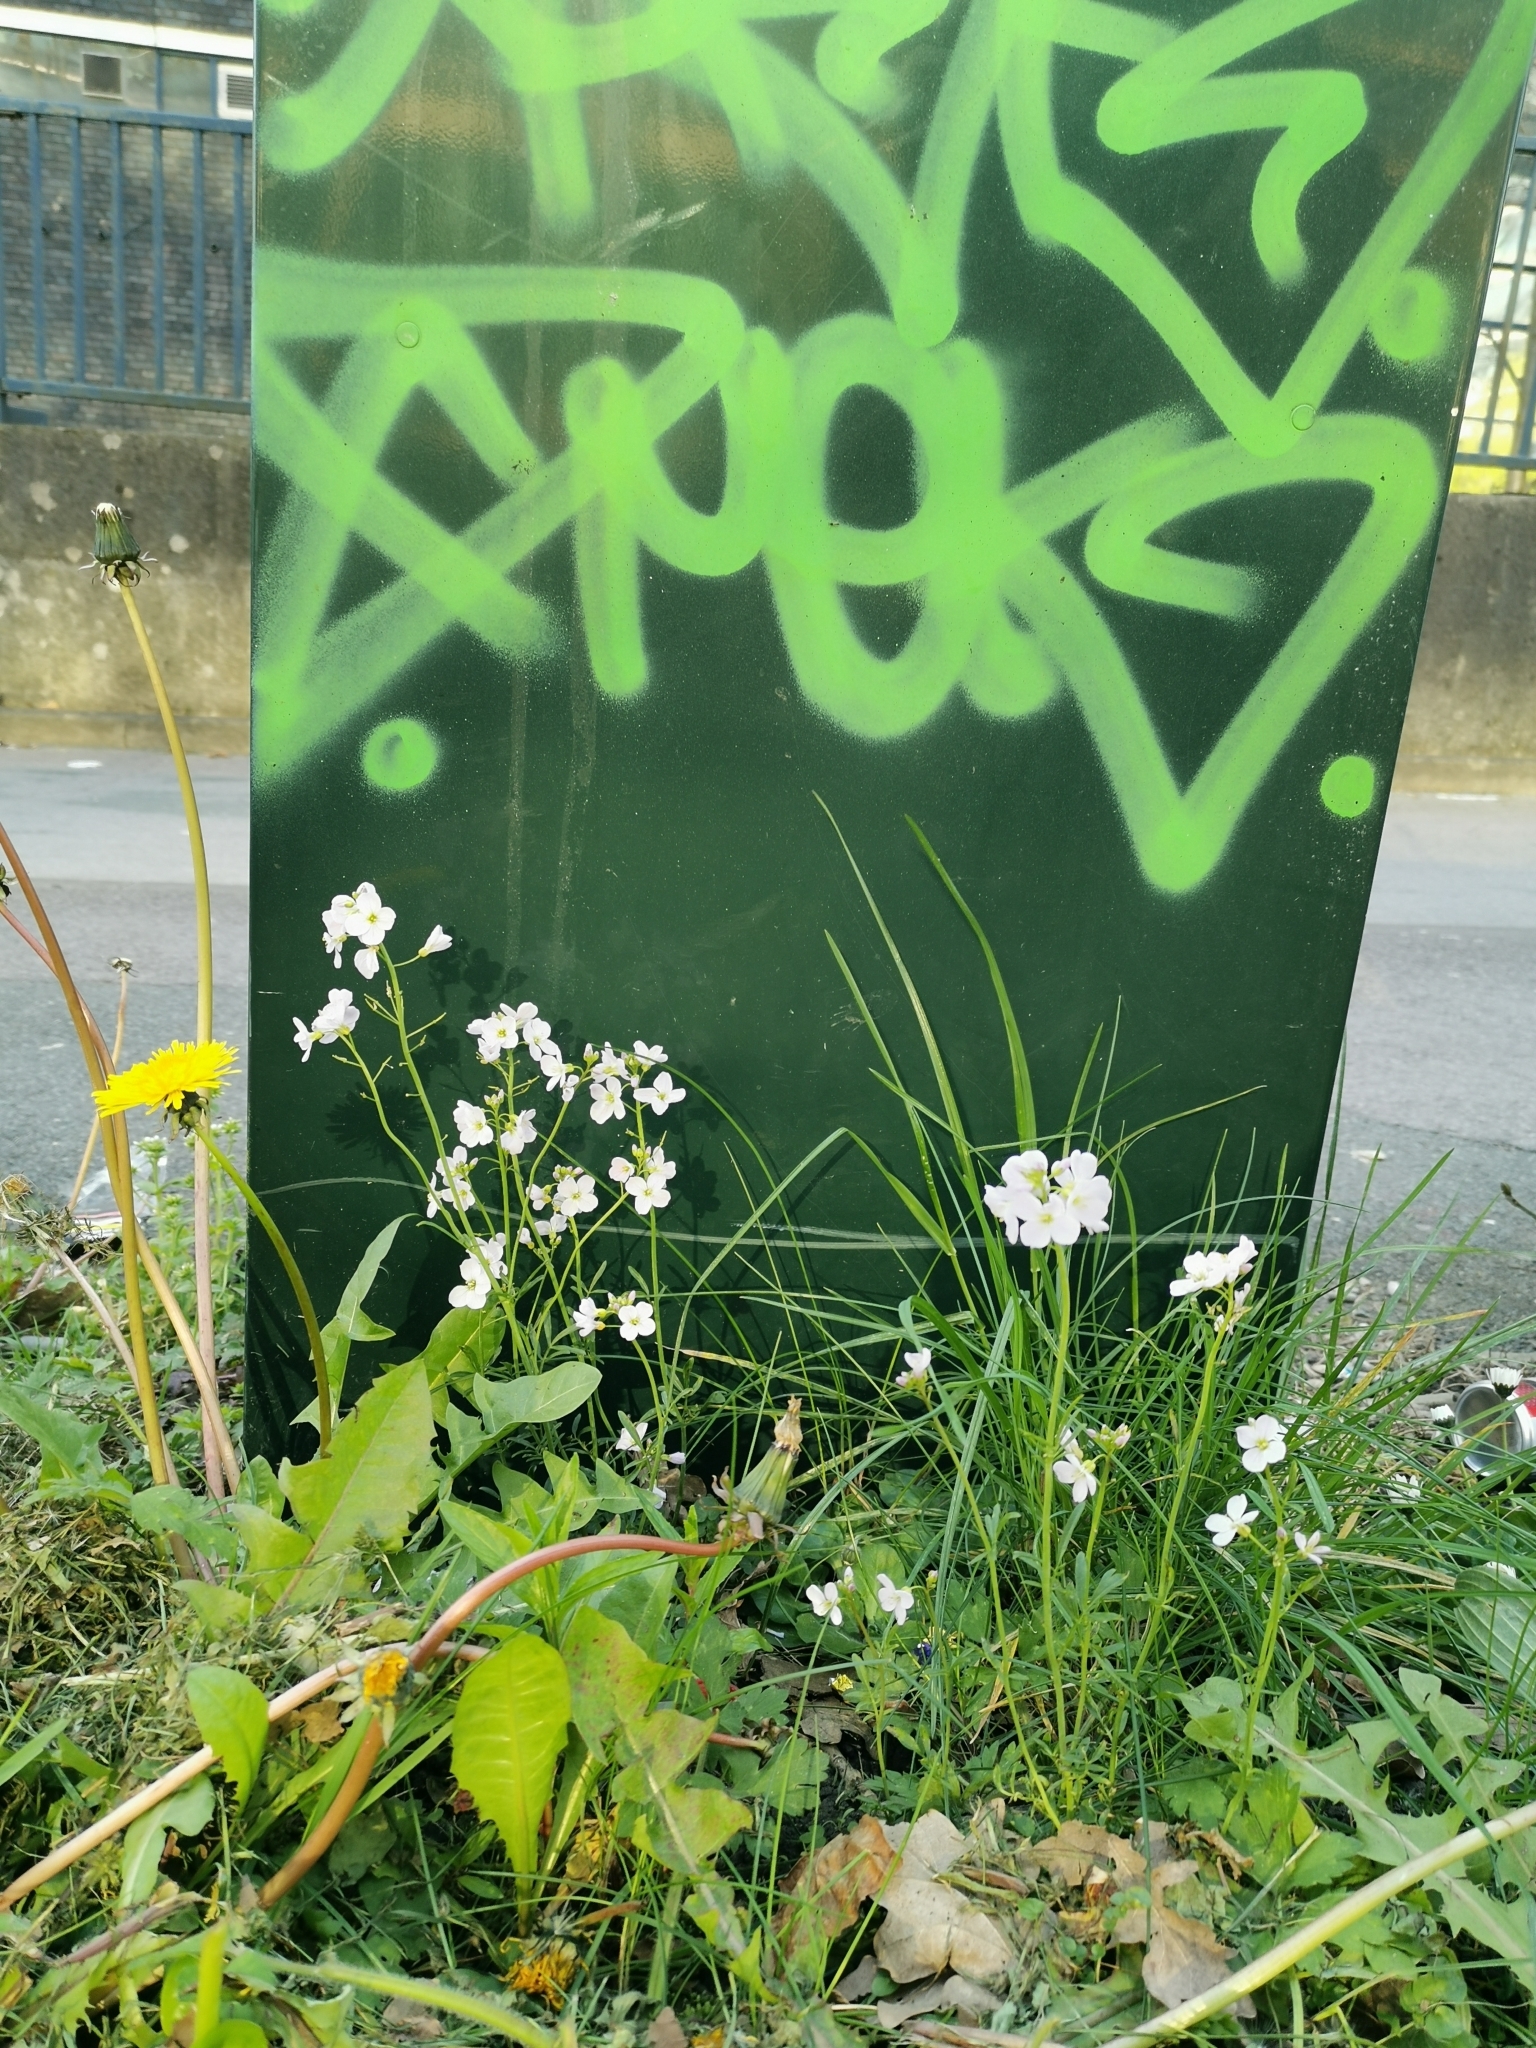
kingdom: Plantae
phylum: Tracheophyta
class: Magnoliopsida
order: Brassicales
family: Brassicaceae
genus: Cardamine
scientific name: Cardamine pratensis
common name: Cuckoo flower
